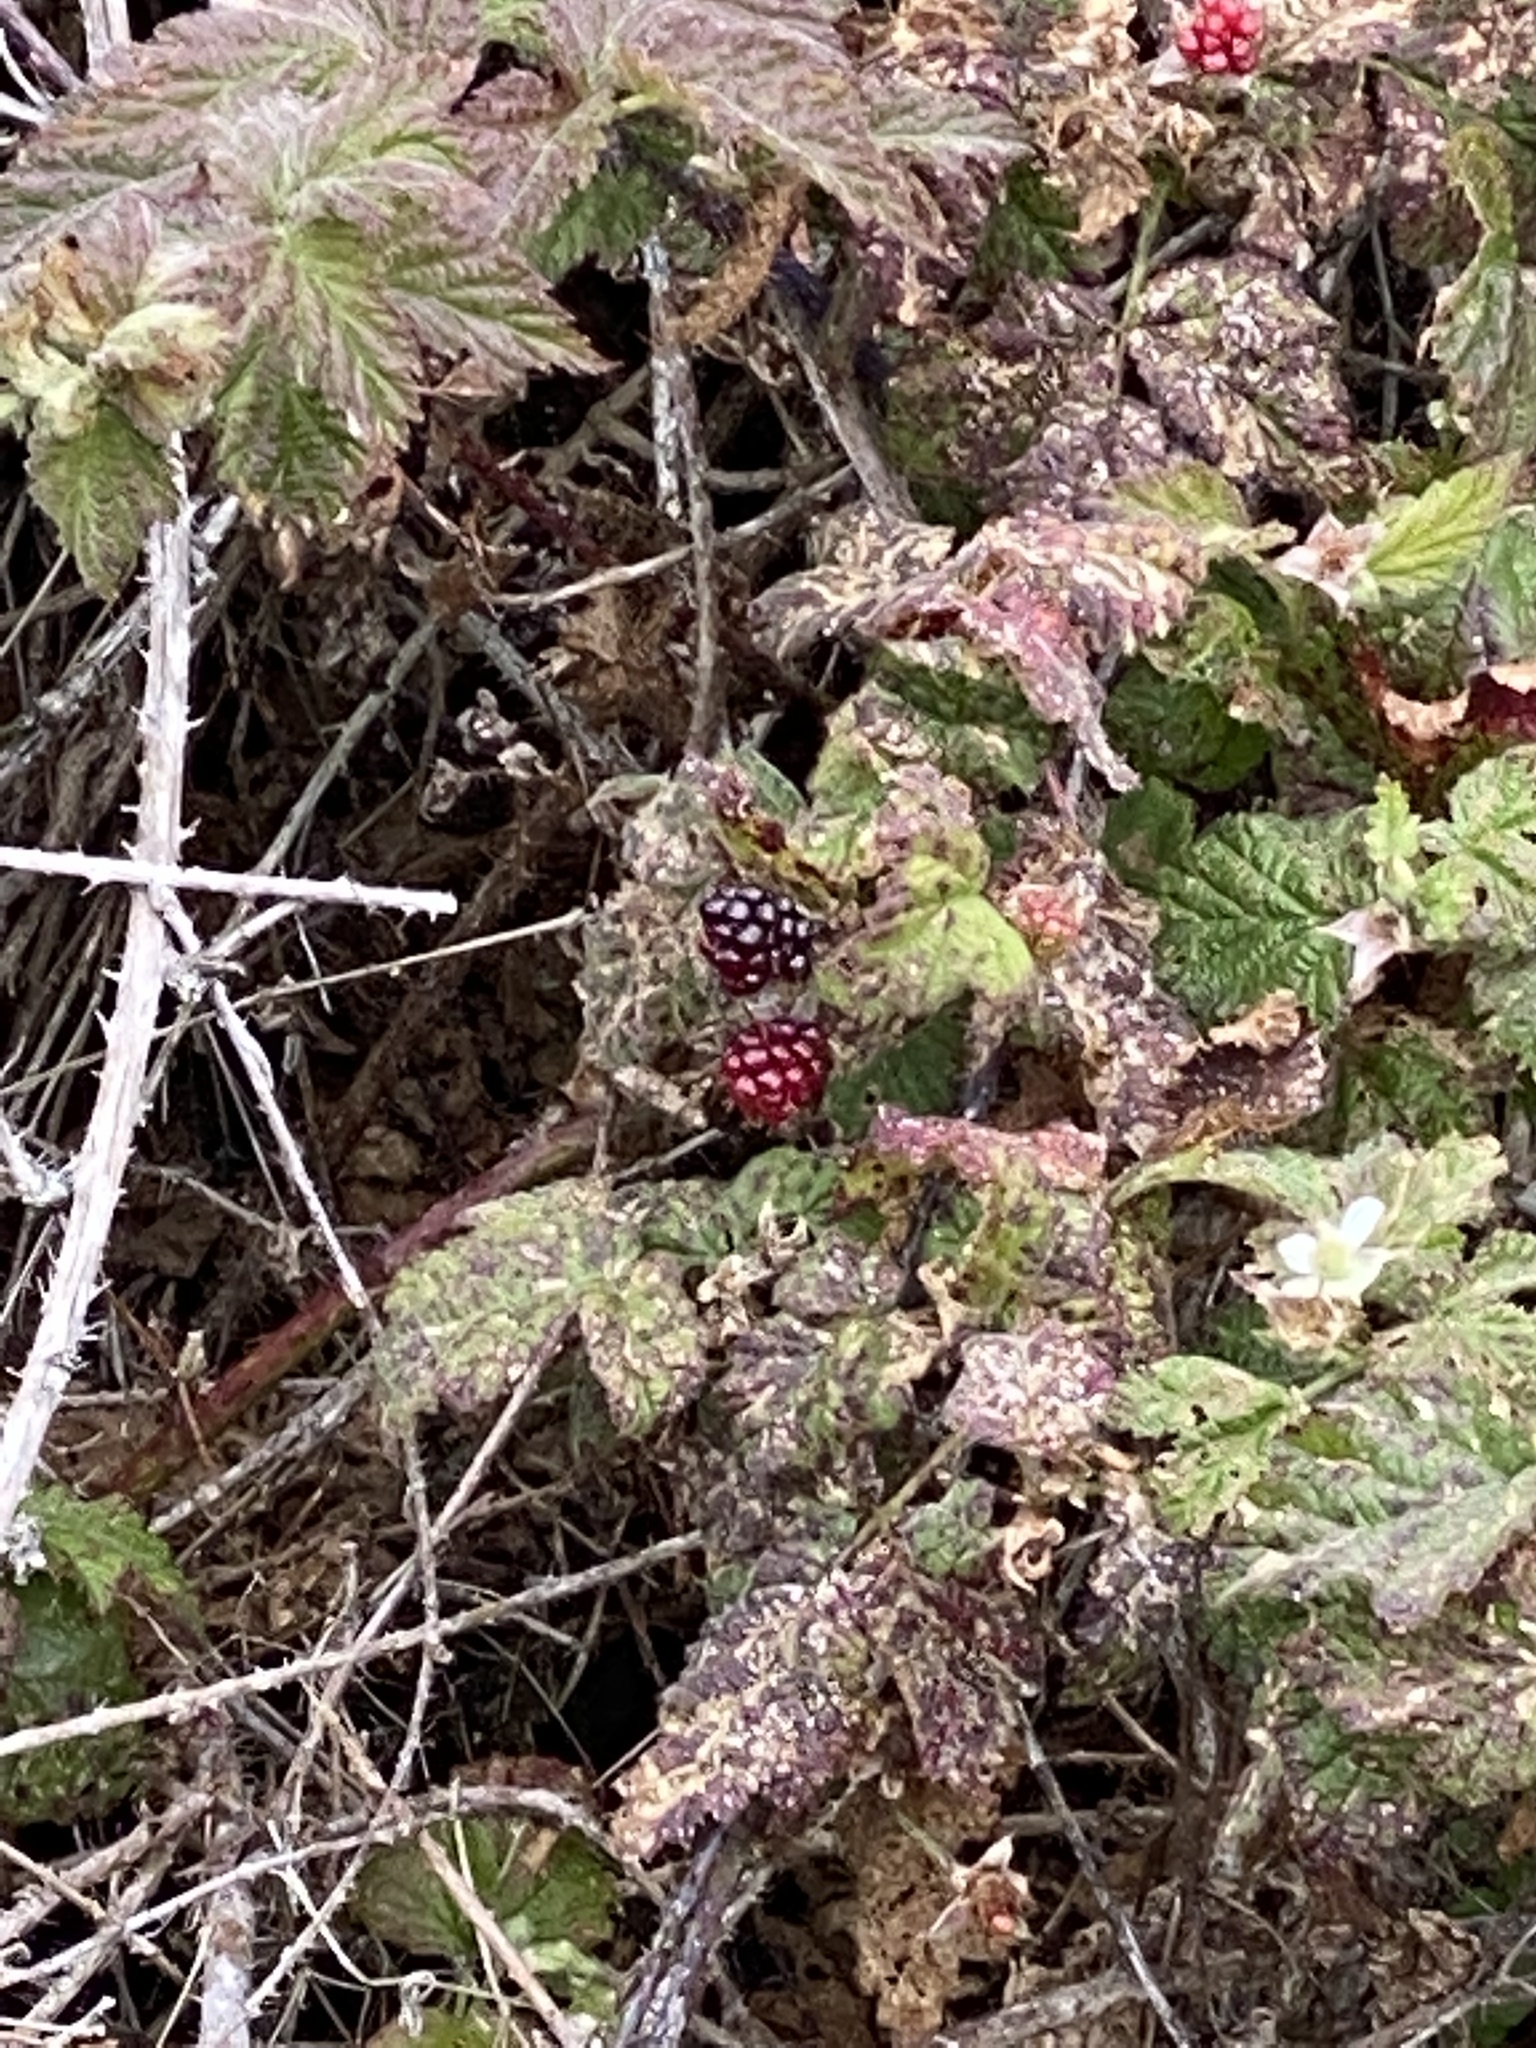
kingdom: Plantae
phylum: Tracheophyta
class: Magnoliopsida
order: Rosales
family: Rosaceae
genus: Rubus
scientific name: Rubus ursinus
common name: Pacific blackberry
